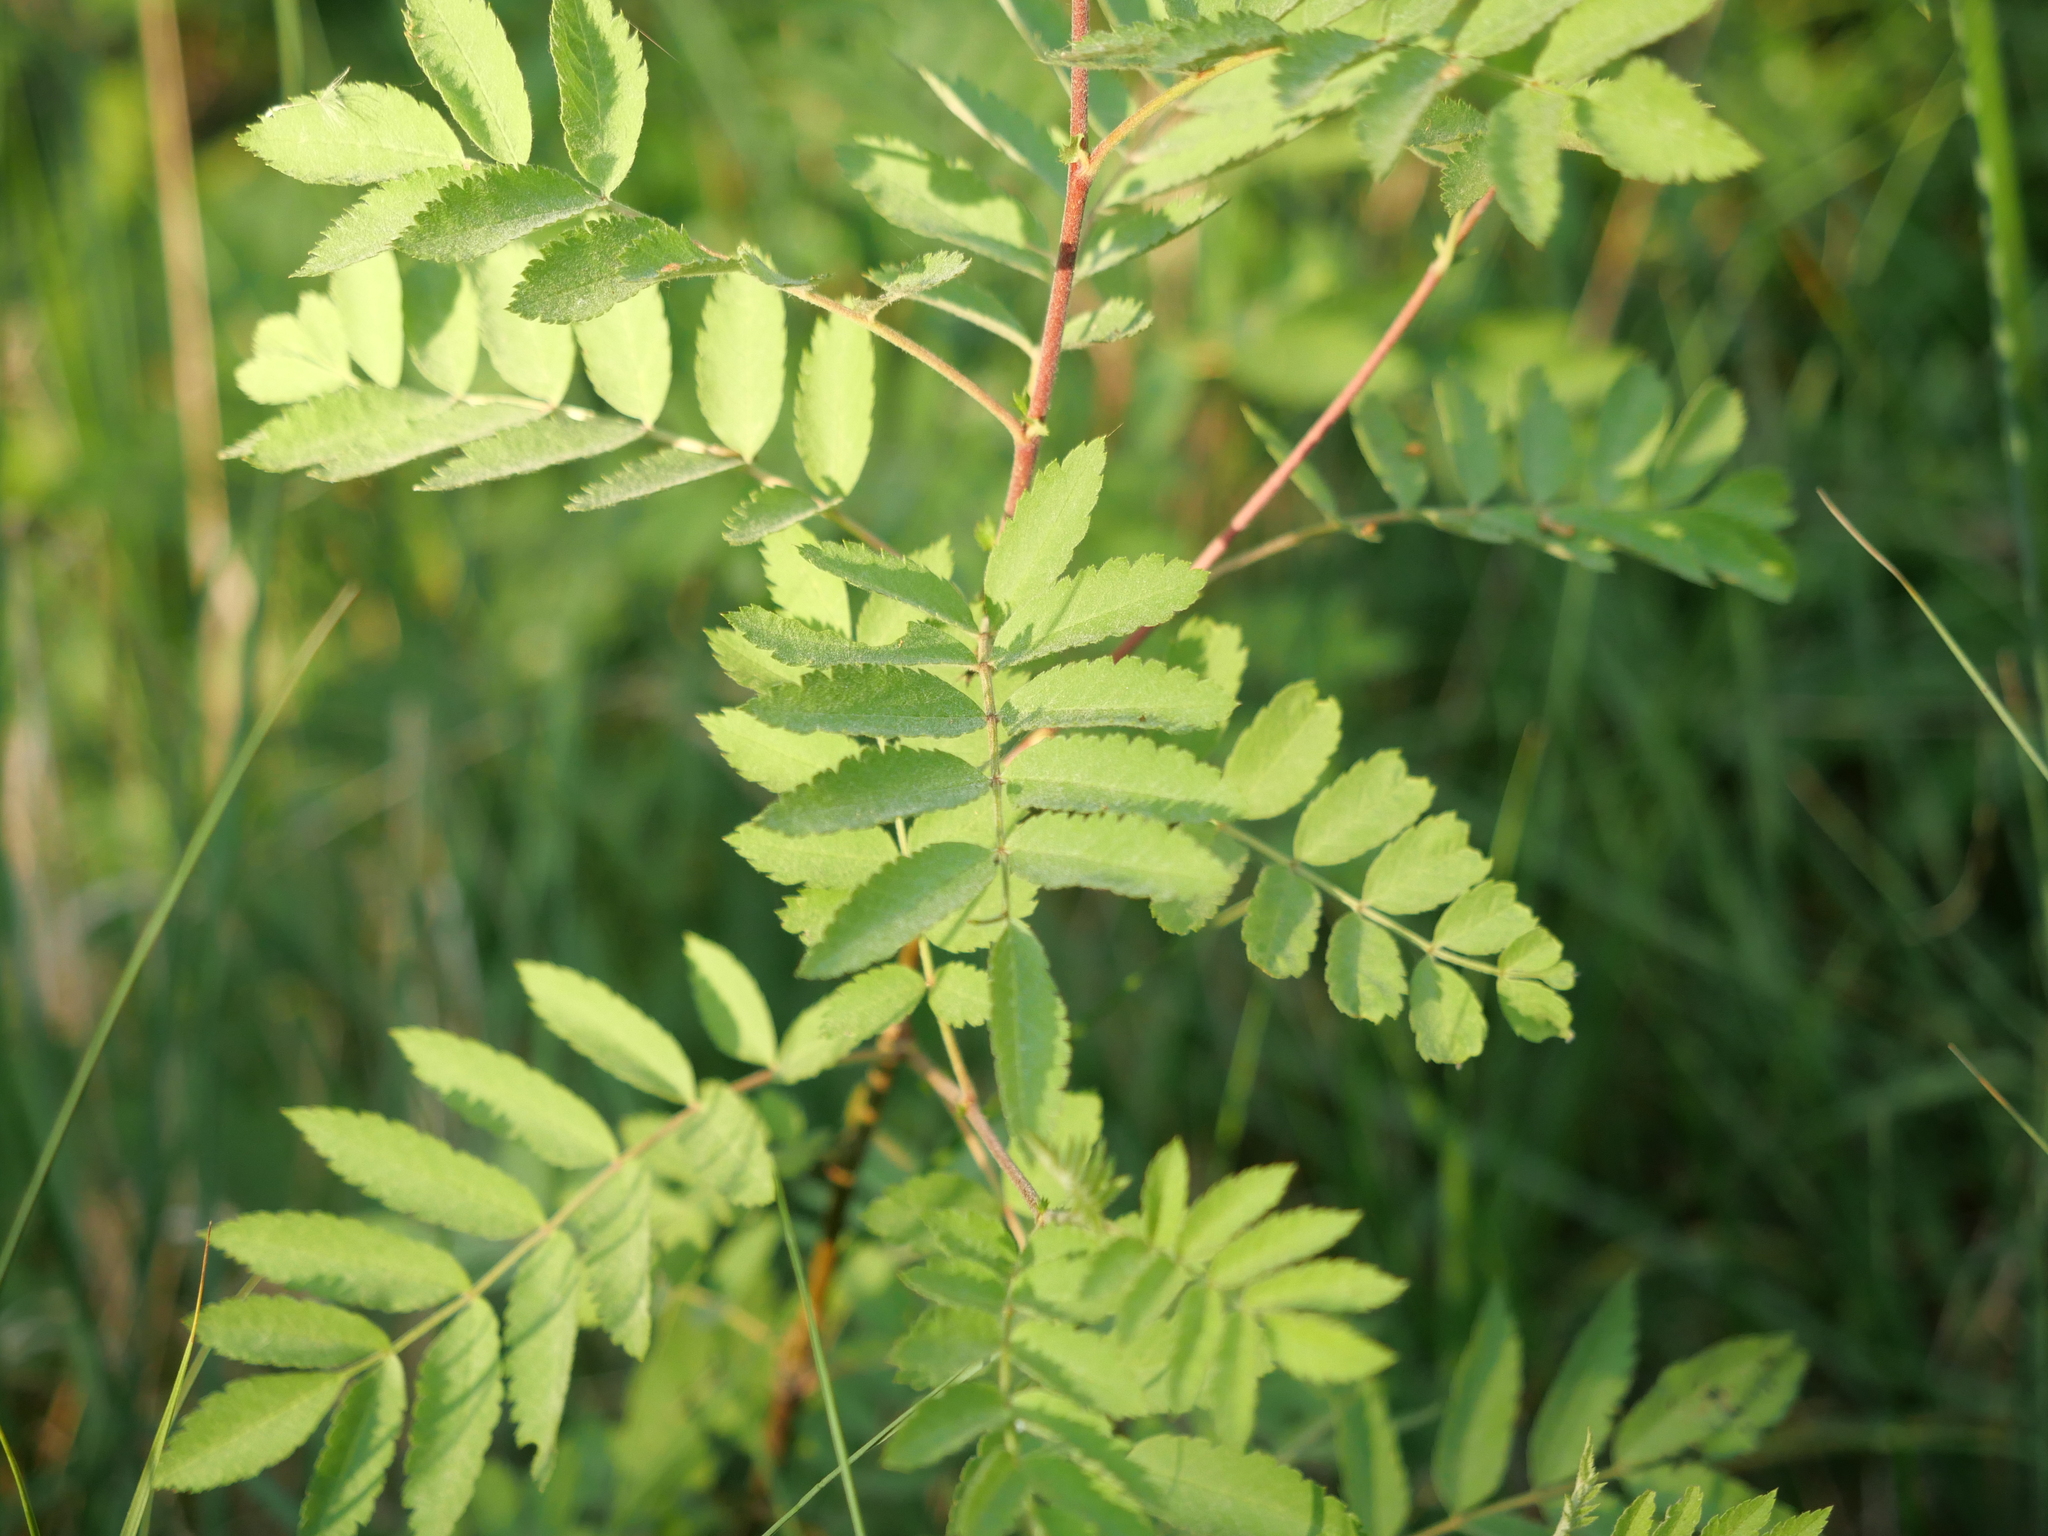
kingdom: Plantae
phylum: Tracheophyta
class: Magnoliopsida
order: Rosales
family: Rosaceae
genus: Sorbus
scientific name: Sorbus aucuparia
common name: Rowan
